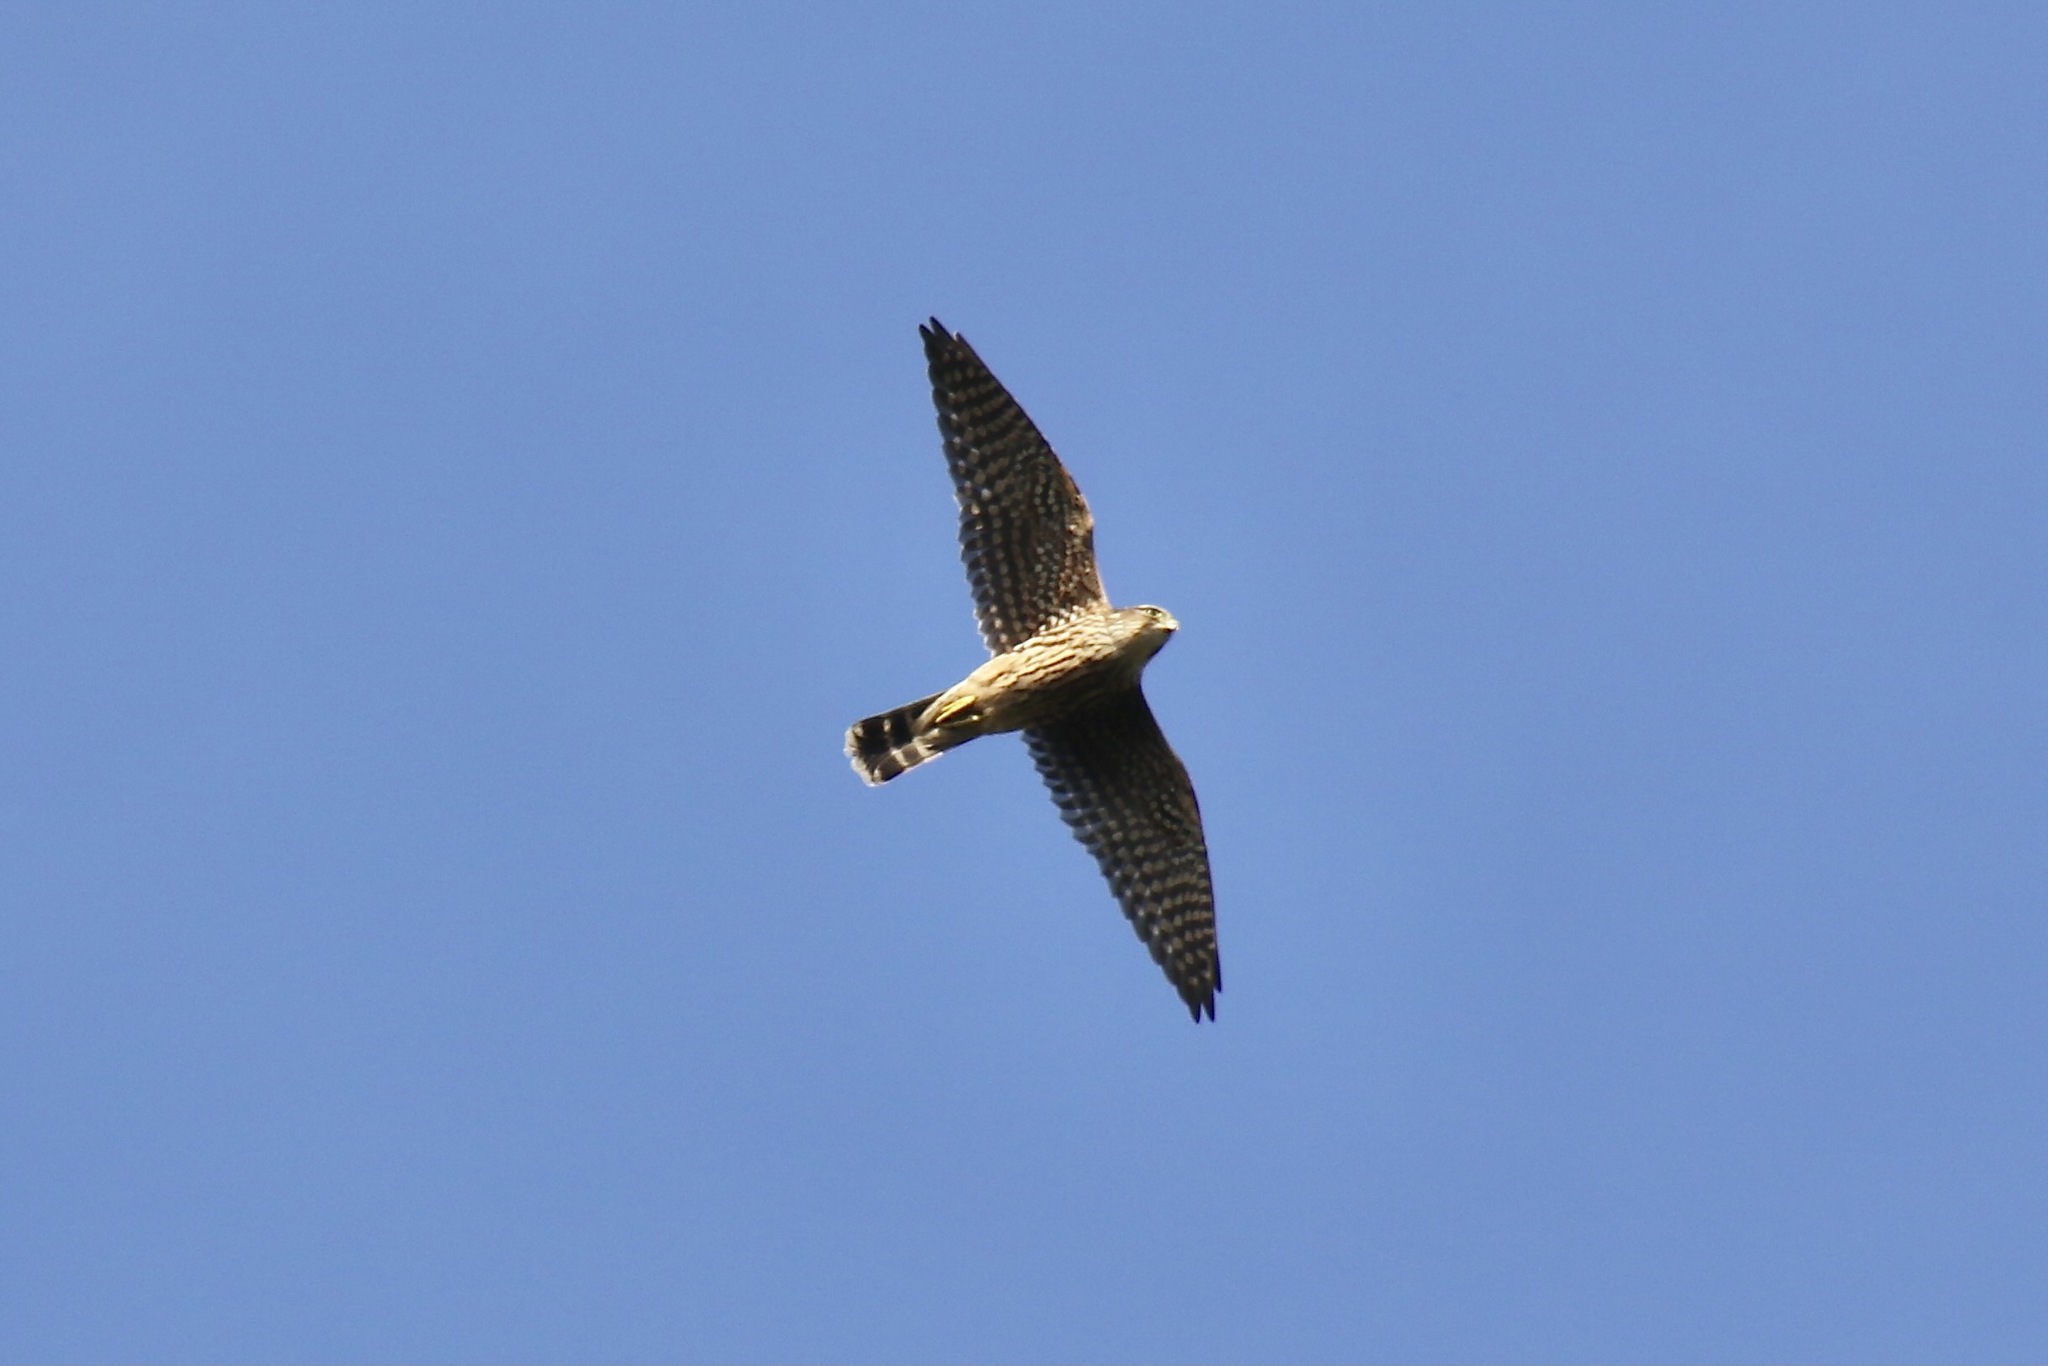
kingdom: Animalia
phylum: Chordata
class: Aves
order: Falconiformes
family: Falconidae
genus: Falco
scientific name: Falco columbarius
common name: Merlin
